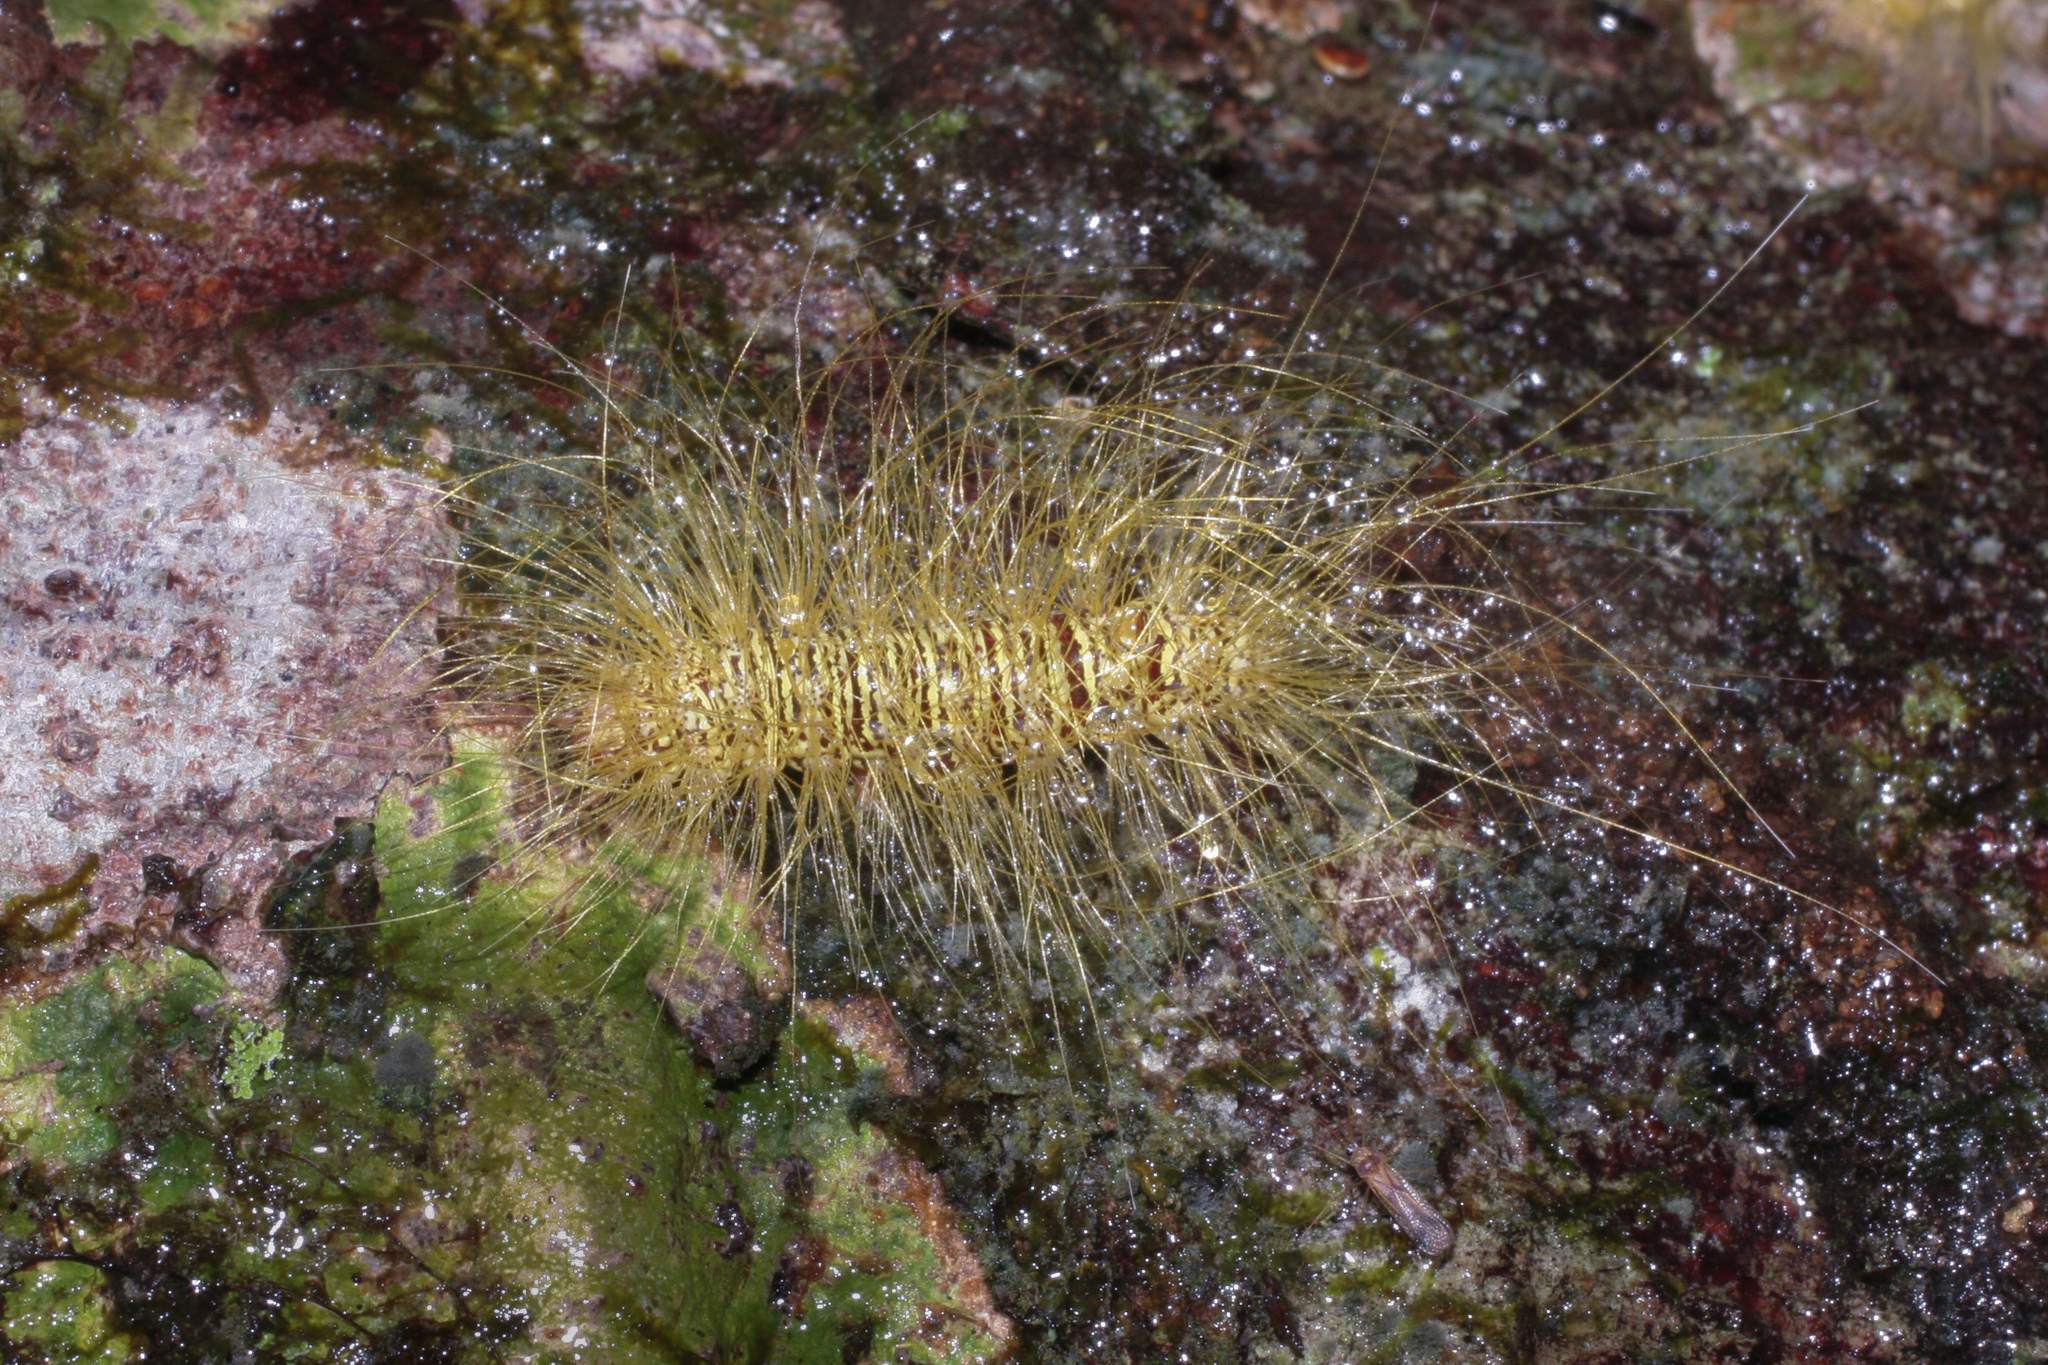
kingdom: Animalia
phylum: Arthropoda
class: Insecta
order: Lepidoptera
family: Erebidae
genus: Eudesmia
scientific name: Eudesmia menea
